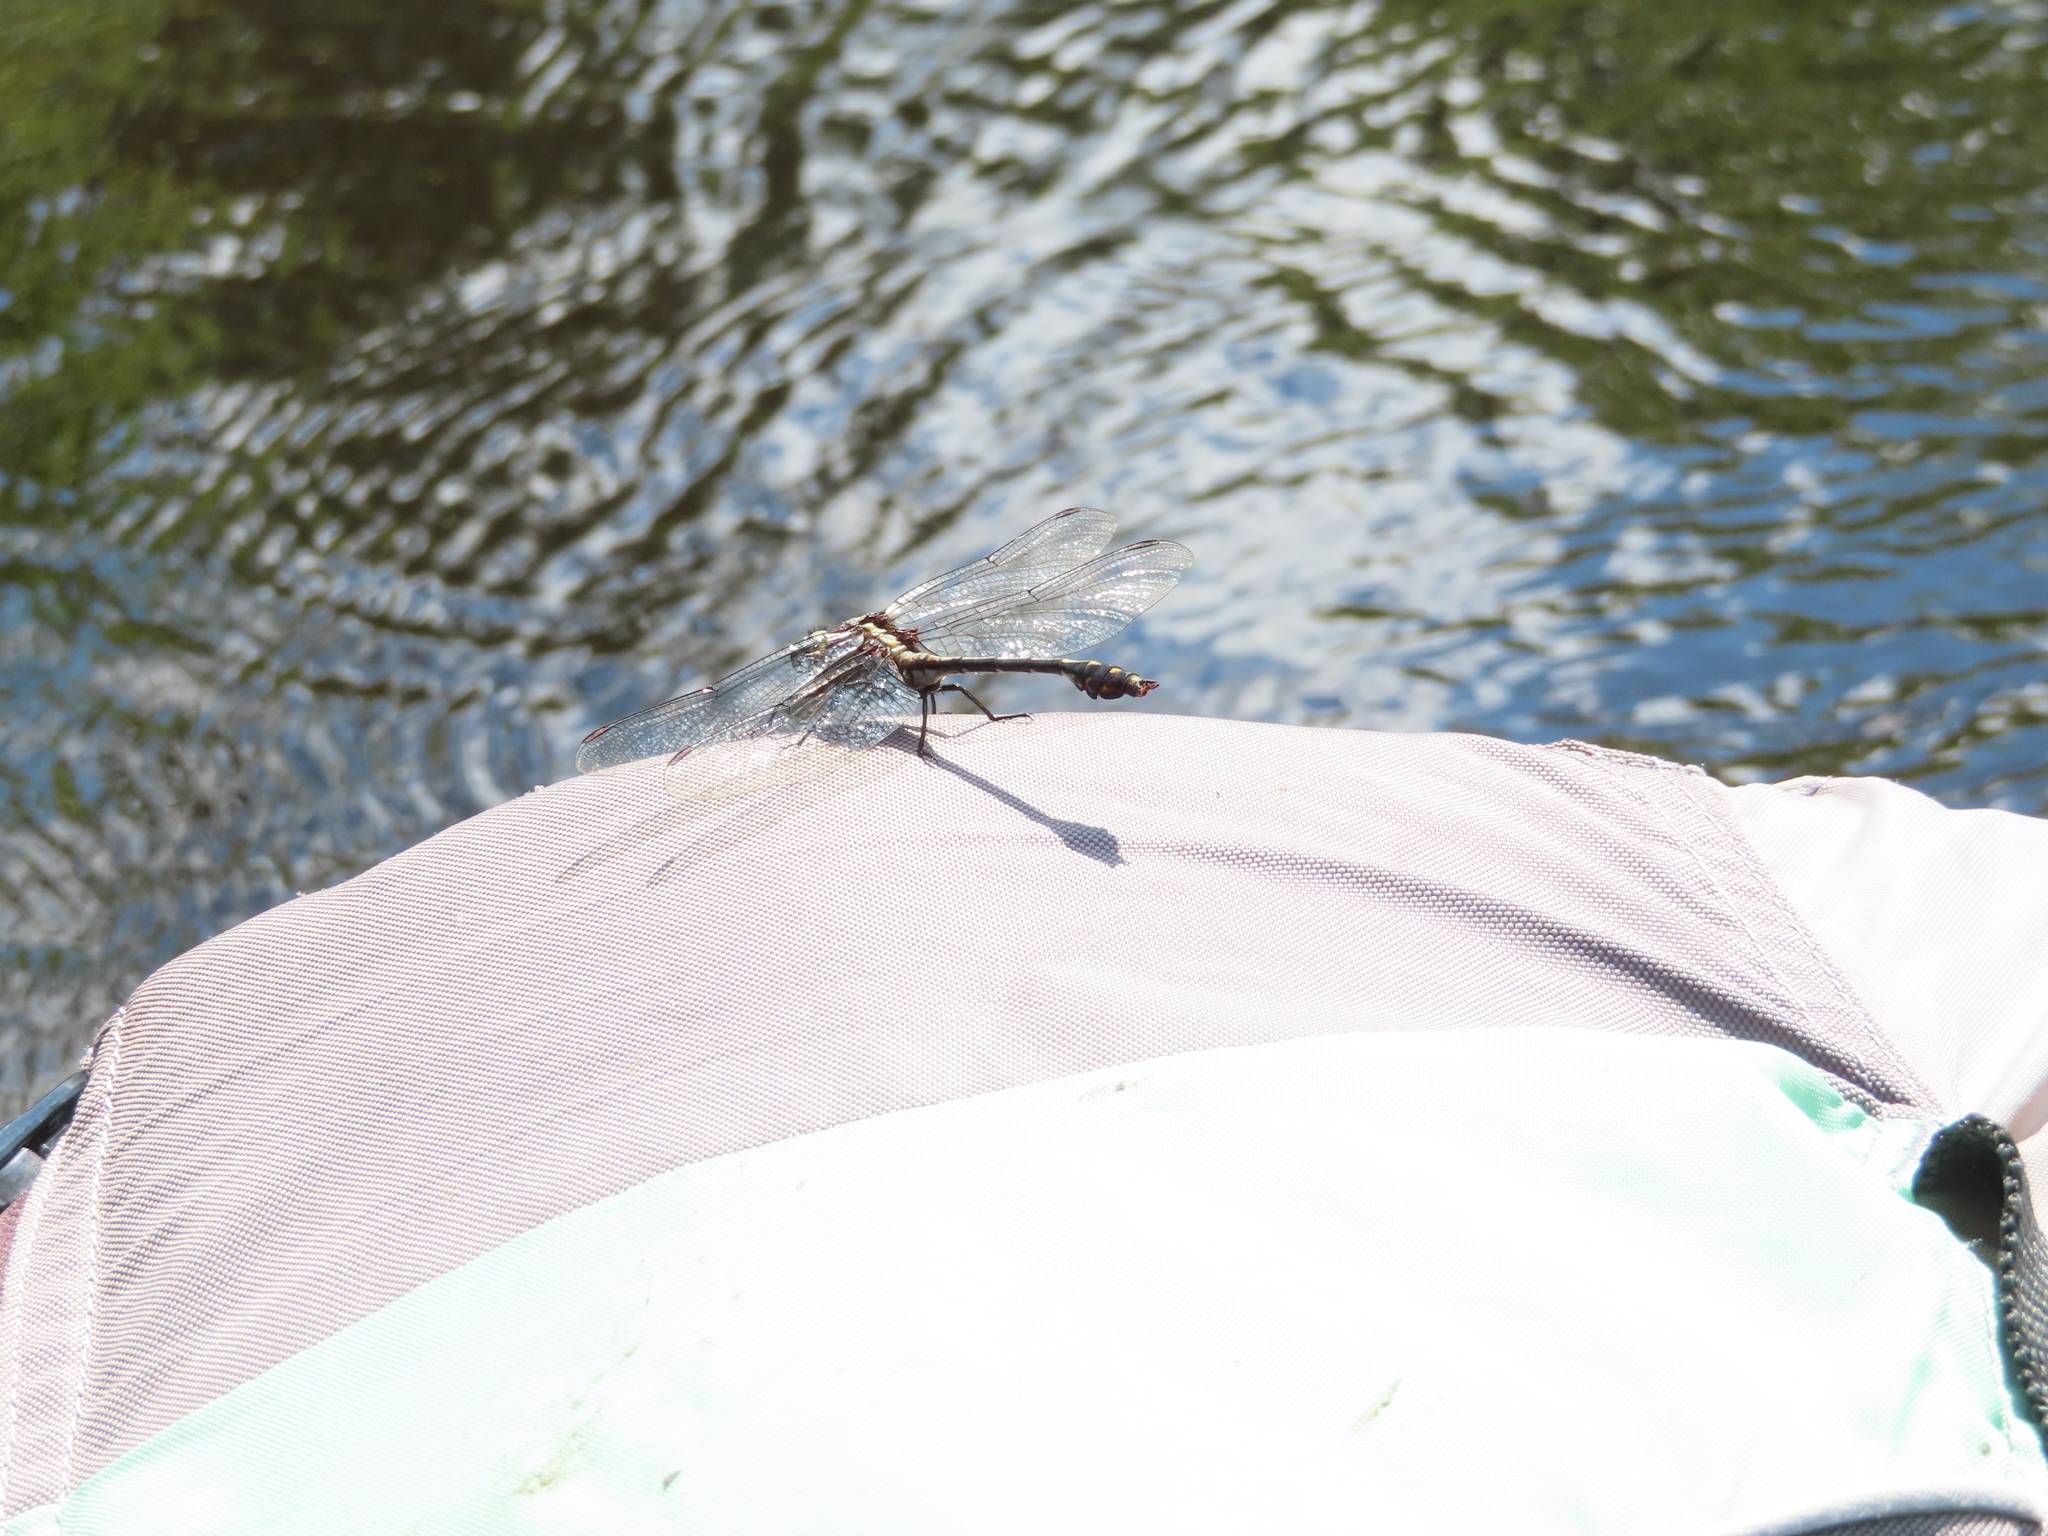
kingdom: Animalia
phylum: Arthropoda
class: Insecta
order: Odonata
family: Gomphidae
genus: Dromogomphus
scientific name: Dromogomphus spinosus
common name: Black-shouldered spinyleg
